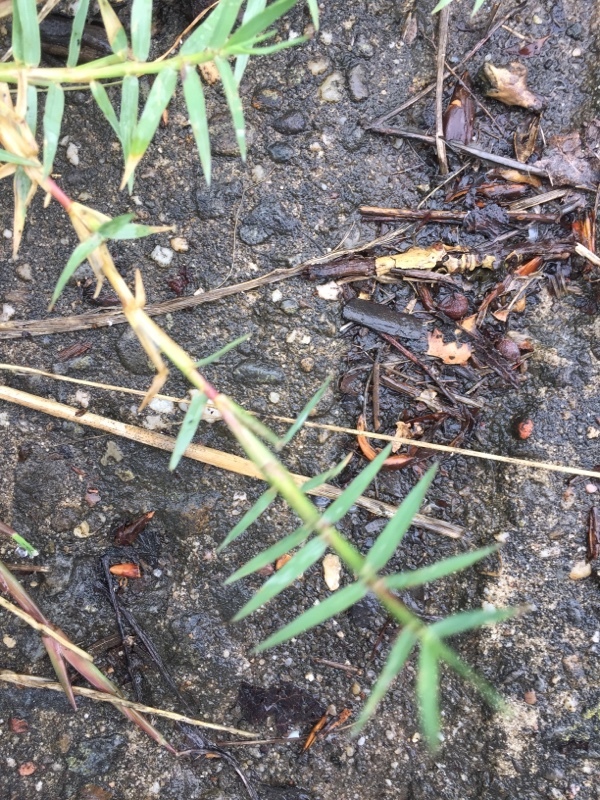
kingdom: Plantae
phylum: Tracheophyta
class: Liliopsida
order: Poales
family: Poaceae
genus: Cynodon
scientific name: Cynodon dactylon
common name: Bermuda grass
